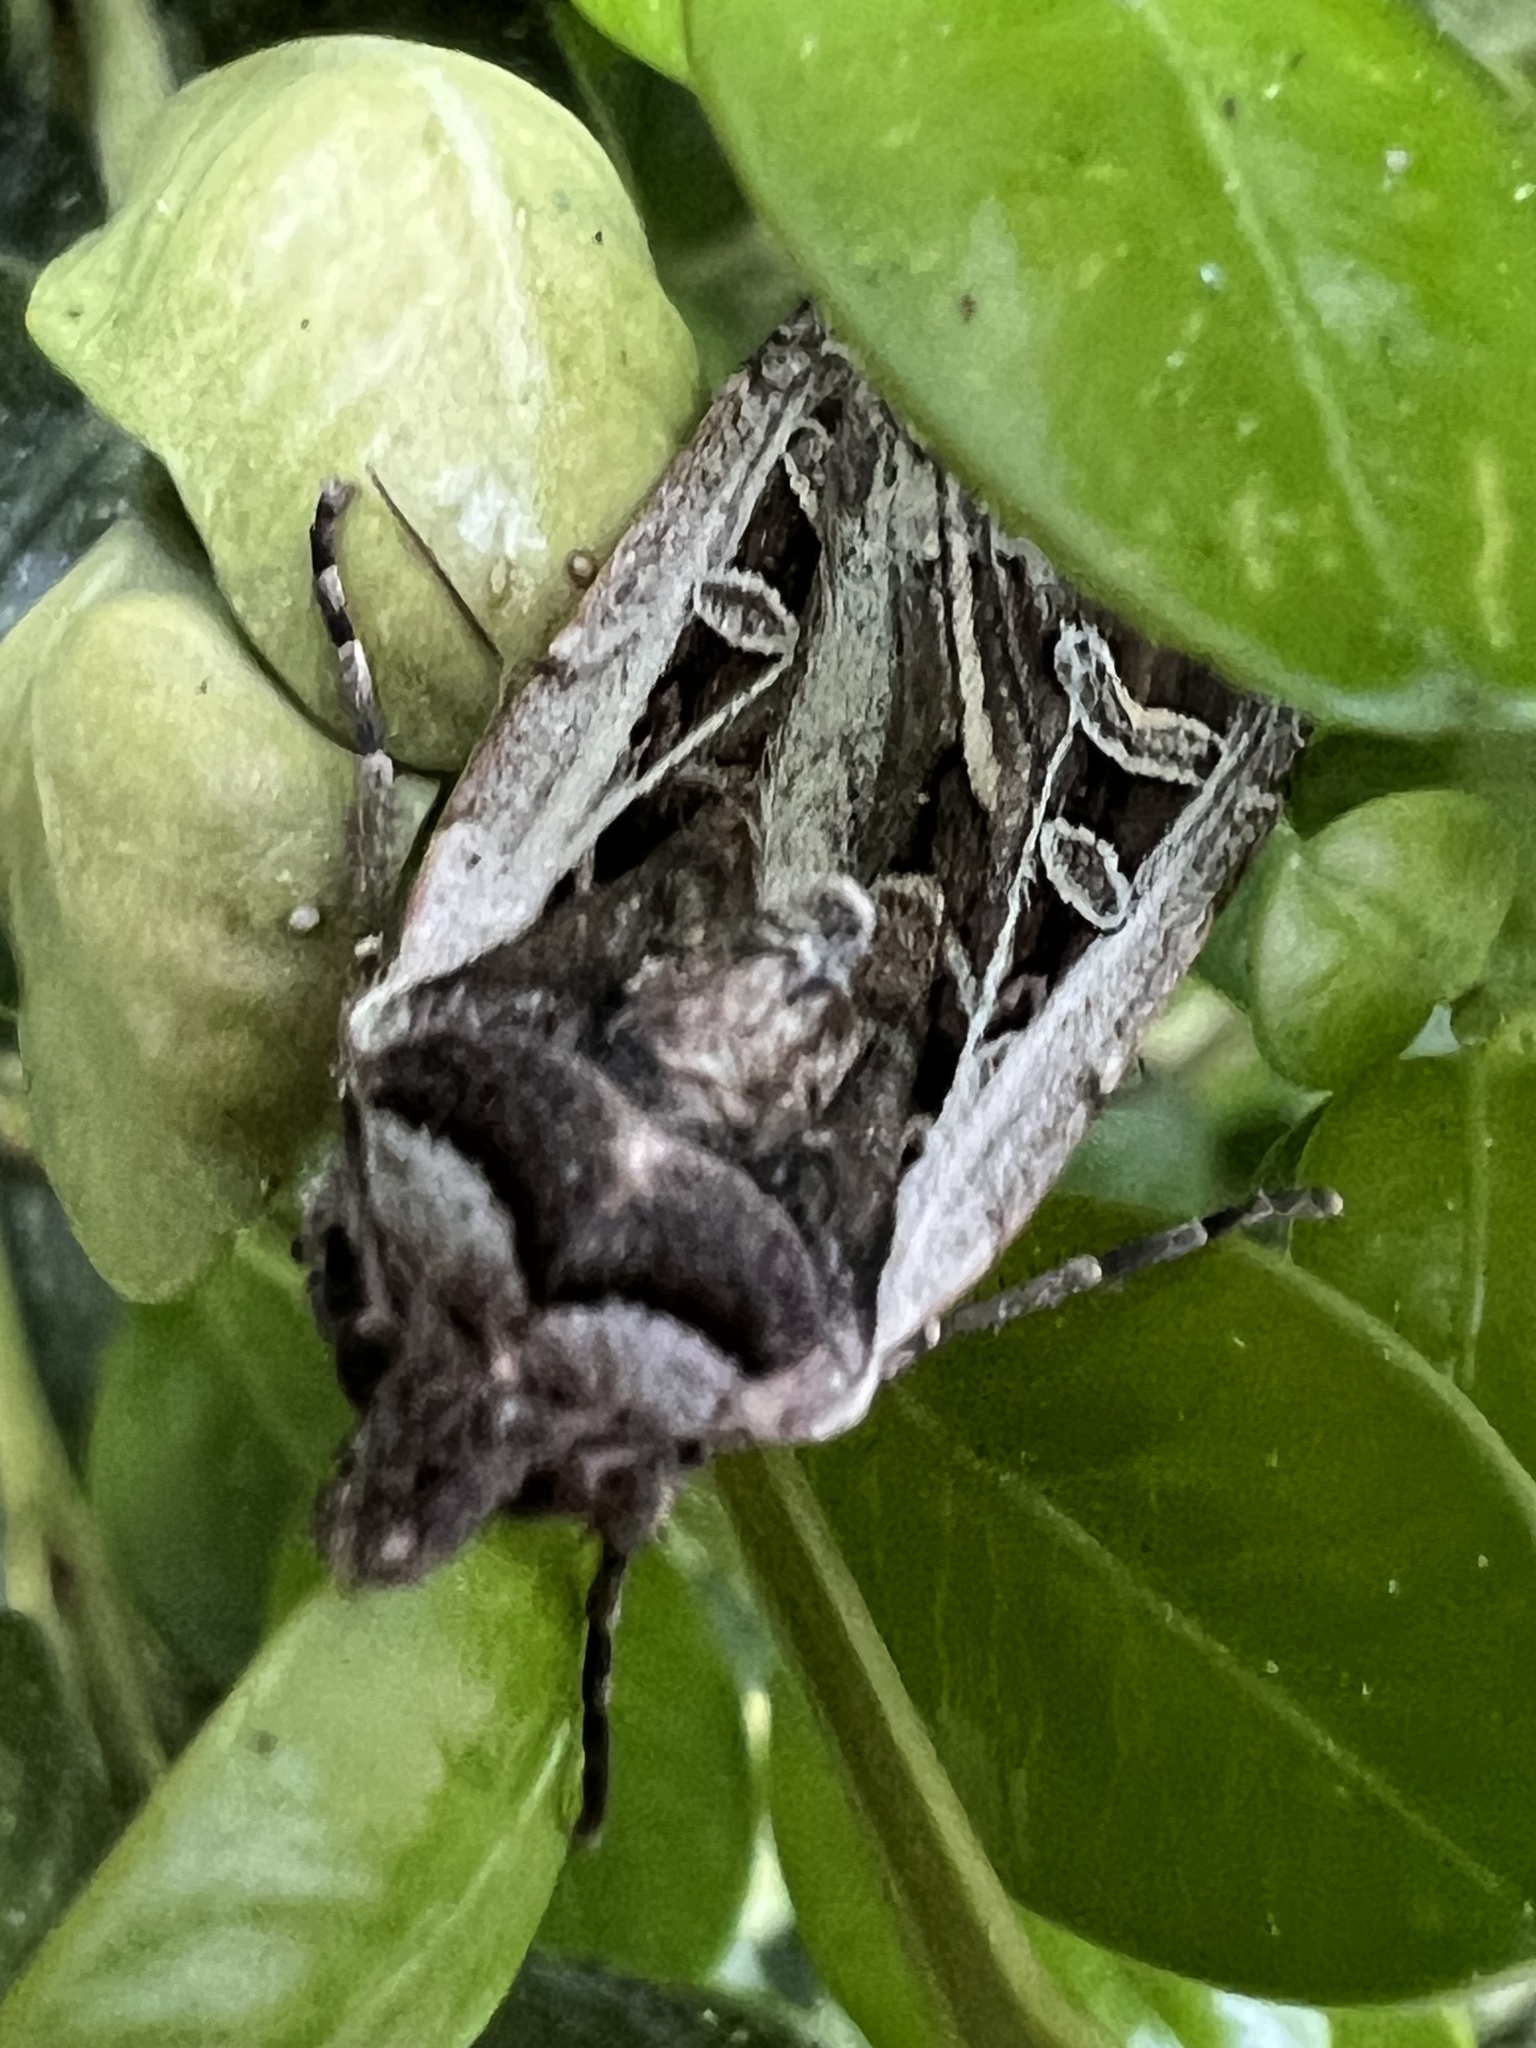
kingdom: Animalia
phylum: Arthropoda
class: Insecta
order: Lepidoptera
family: Noctuidae
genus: Euxoa
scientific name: Euxoa auxiliaris
